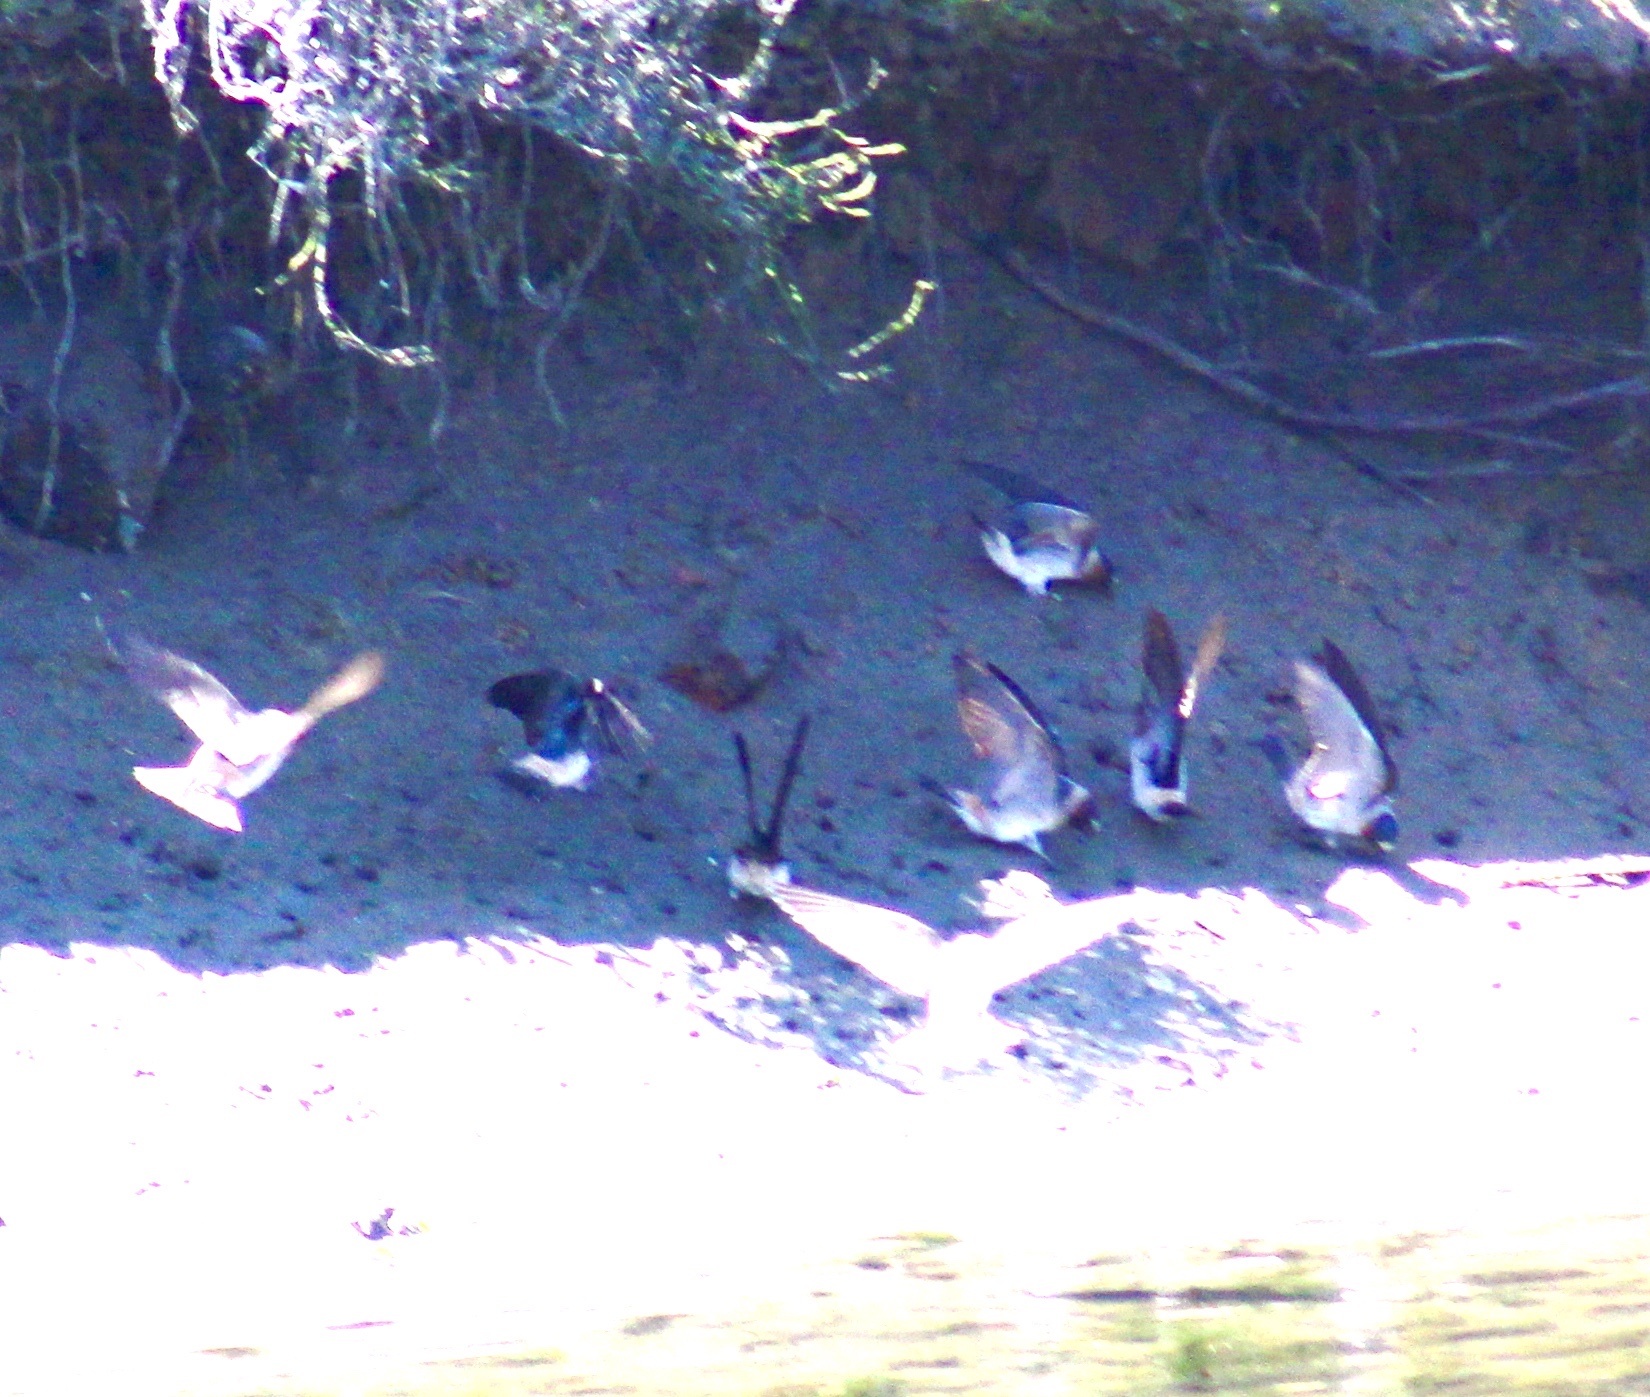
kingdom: Animalia
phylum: Chordata
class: Aves
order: Passeriformes
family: Hirundinidae
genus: Petrochelidon
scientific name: Petrochelidon pyrrhonota
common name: American cliff swallow
